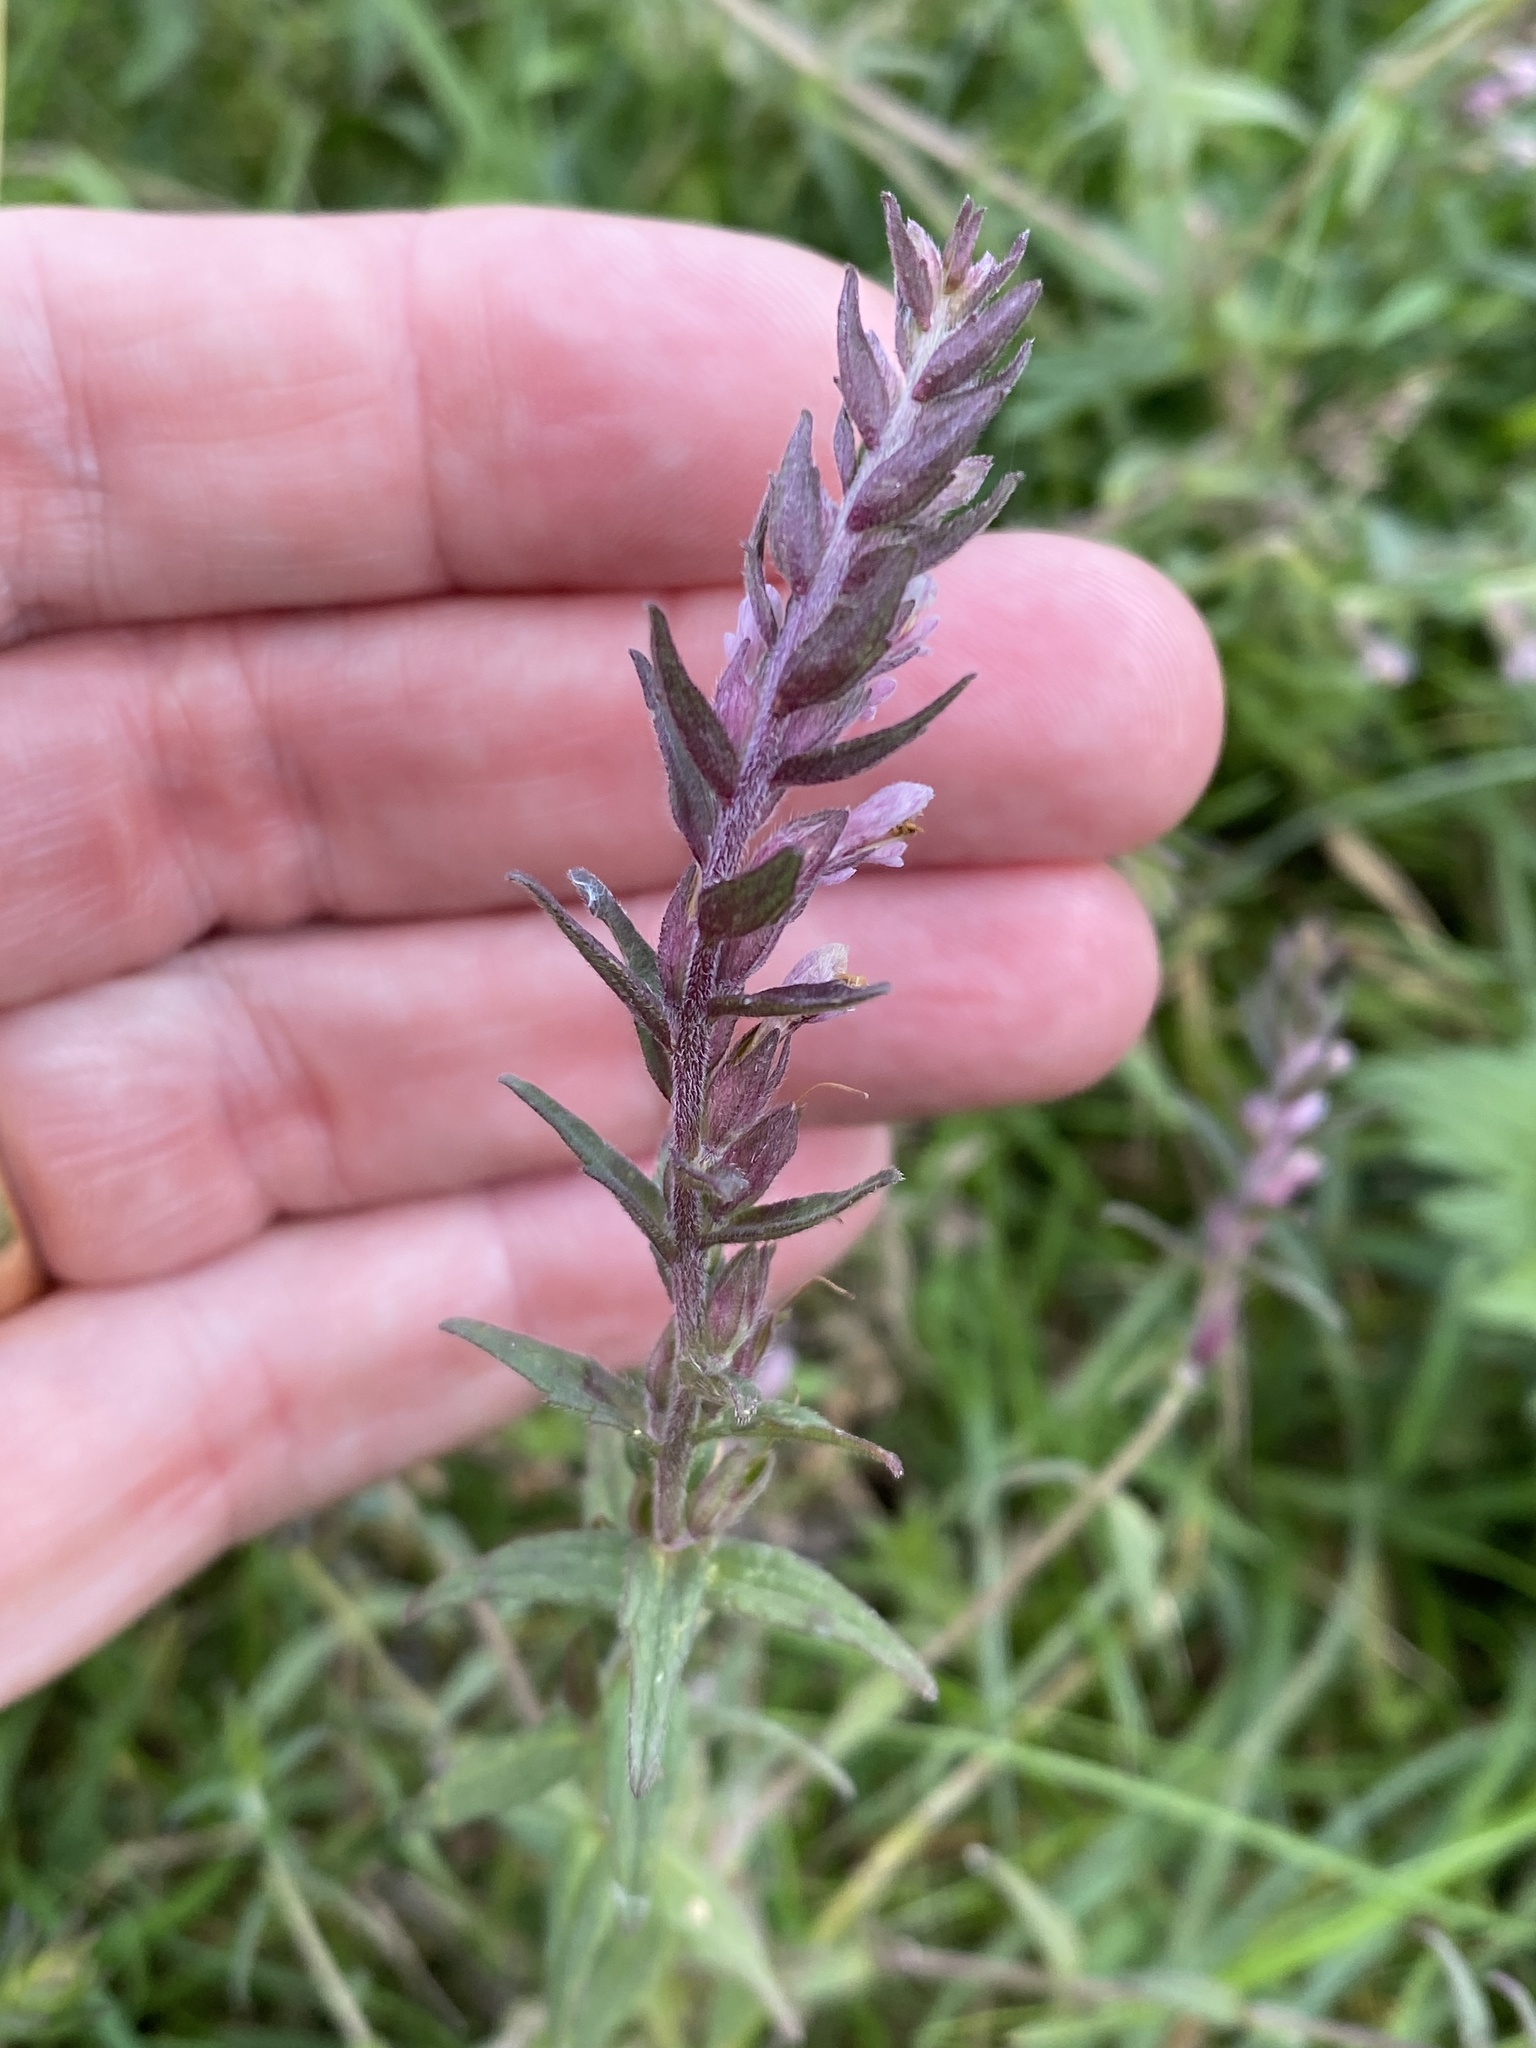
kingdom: Plantae
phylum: Tracheophyta
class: Magnoliopsida
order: Lamiales
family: Orobanchaceae
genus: Odontites
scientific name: Odontites vernus
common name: Red bartsia
